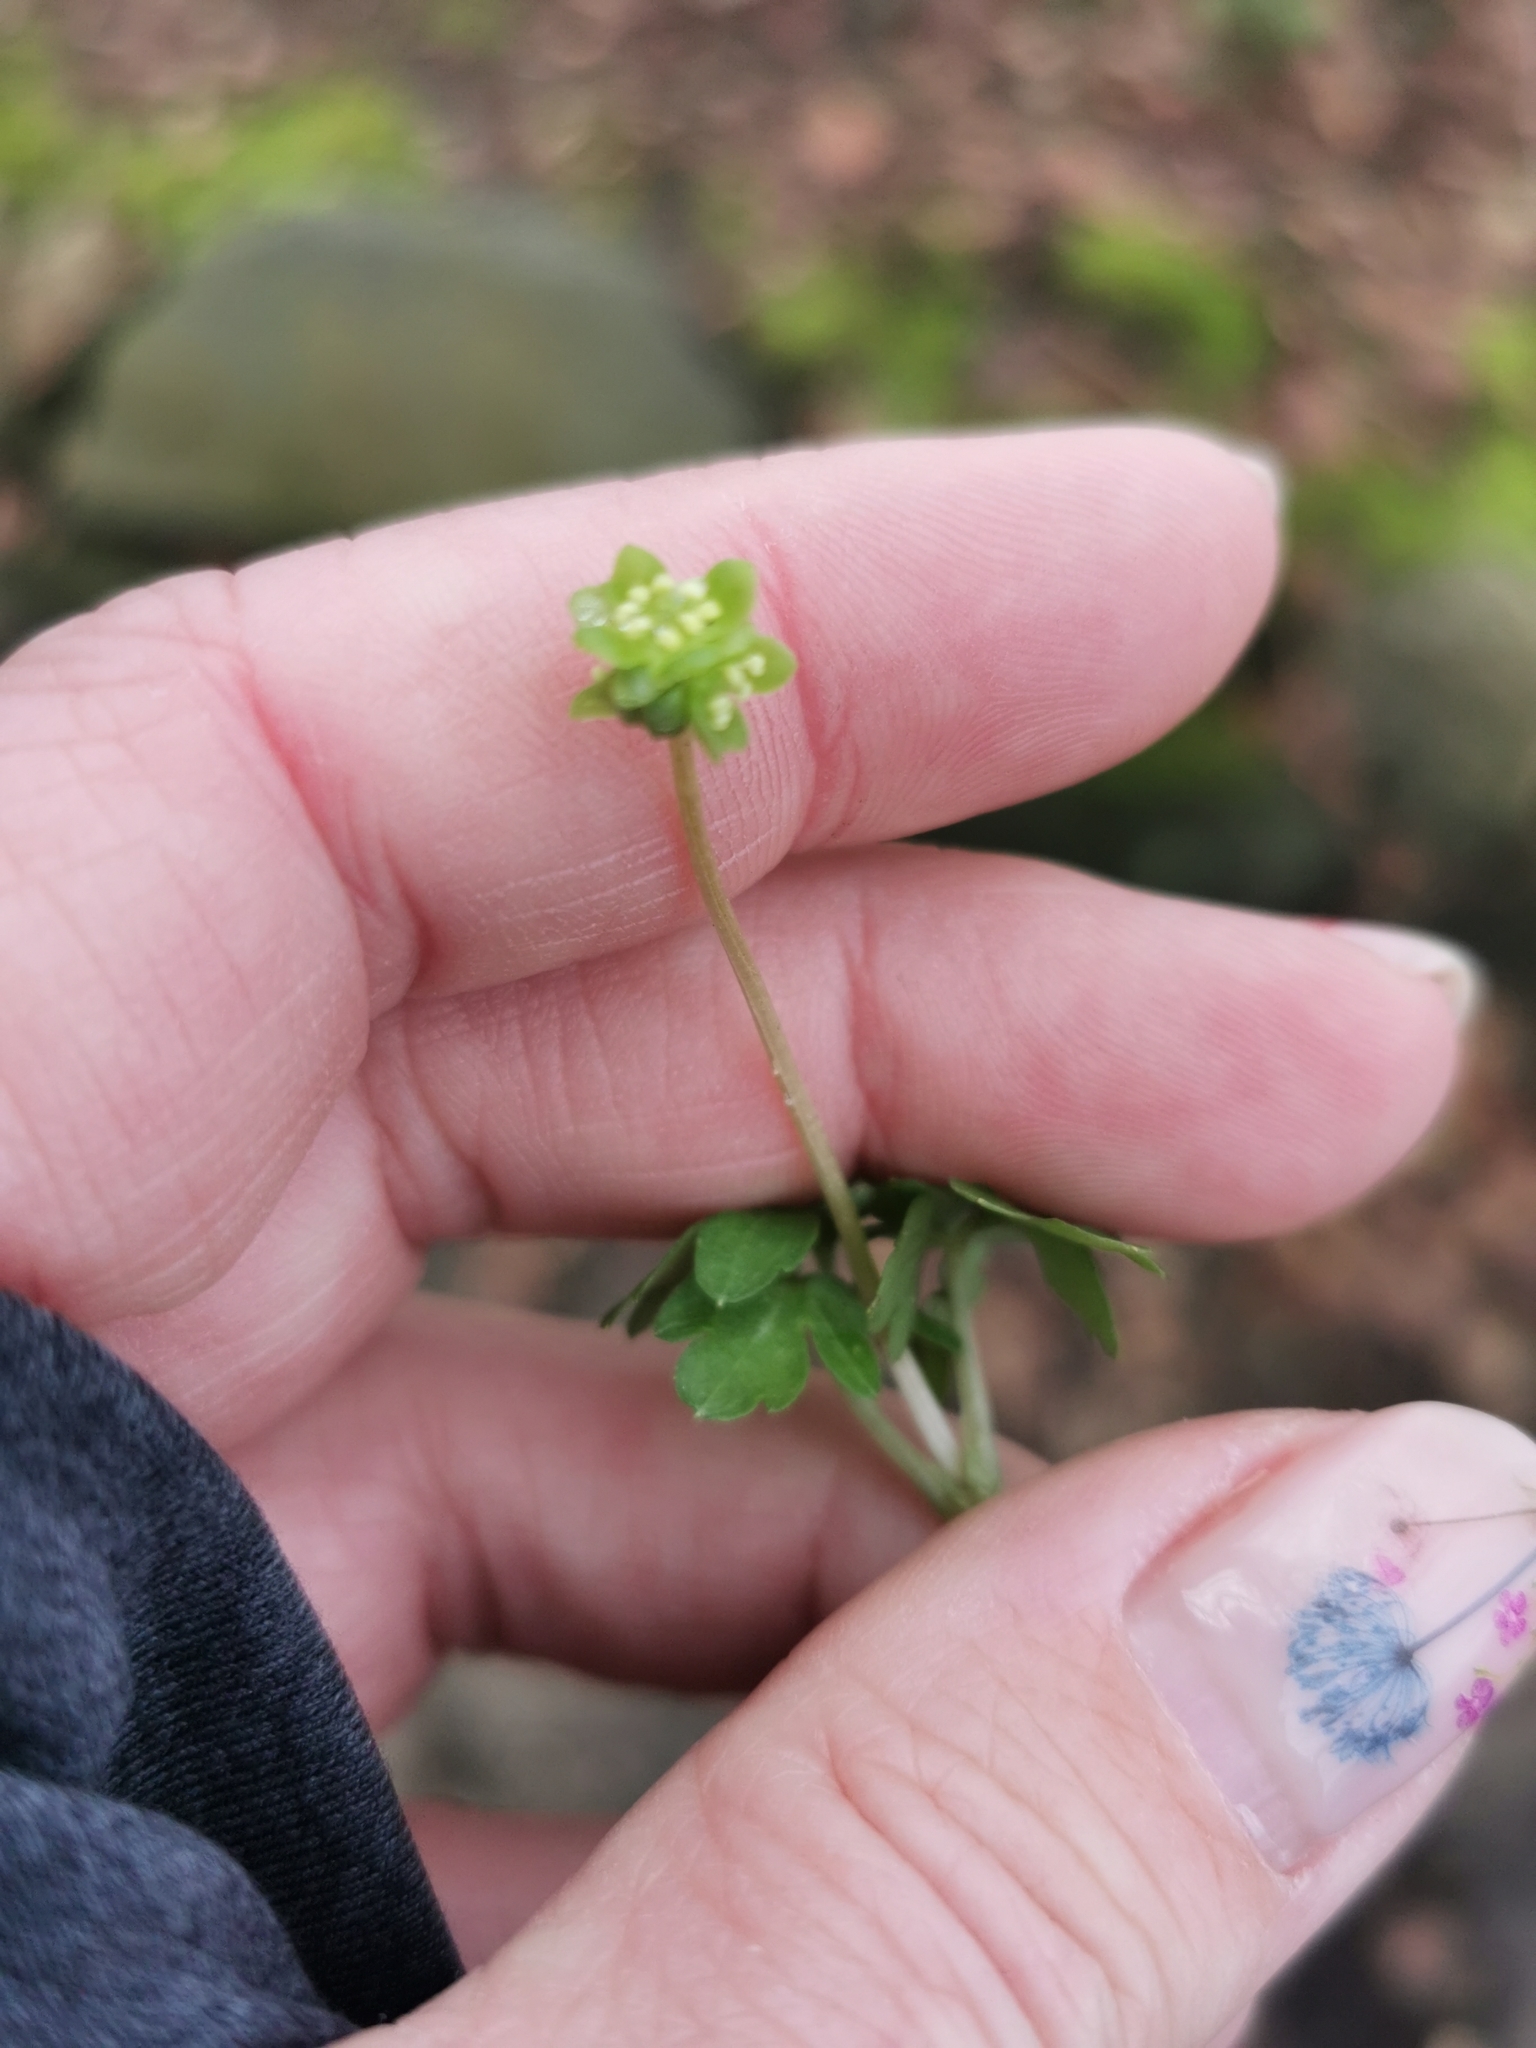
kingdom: Plantae
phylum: Tracheophyta
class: Magnoliopsida
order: Dipsacales
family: Viburnaceae
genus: Adoxa
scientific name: Adoxa moschatellina
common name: Moschatel
